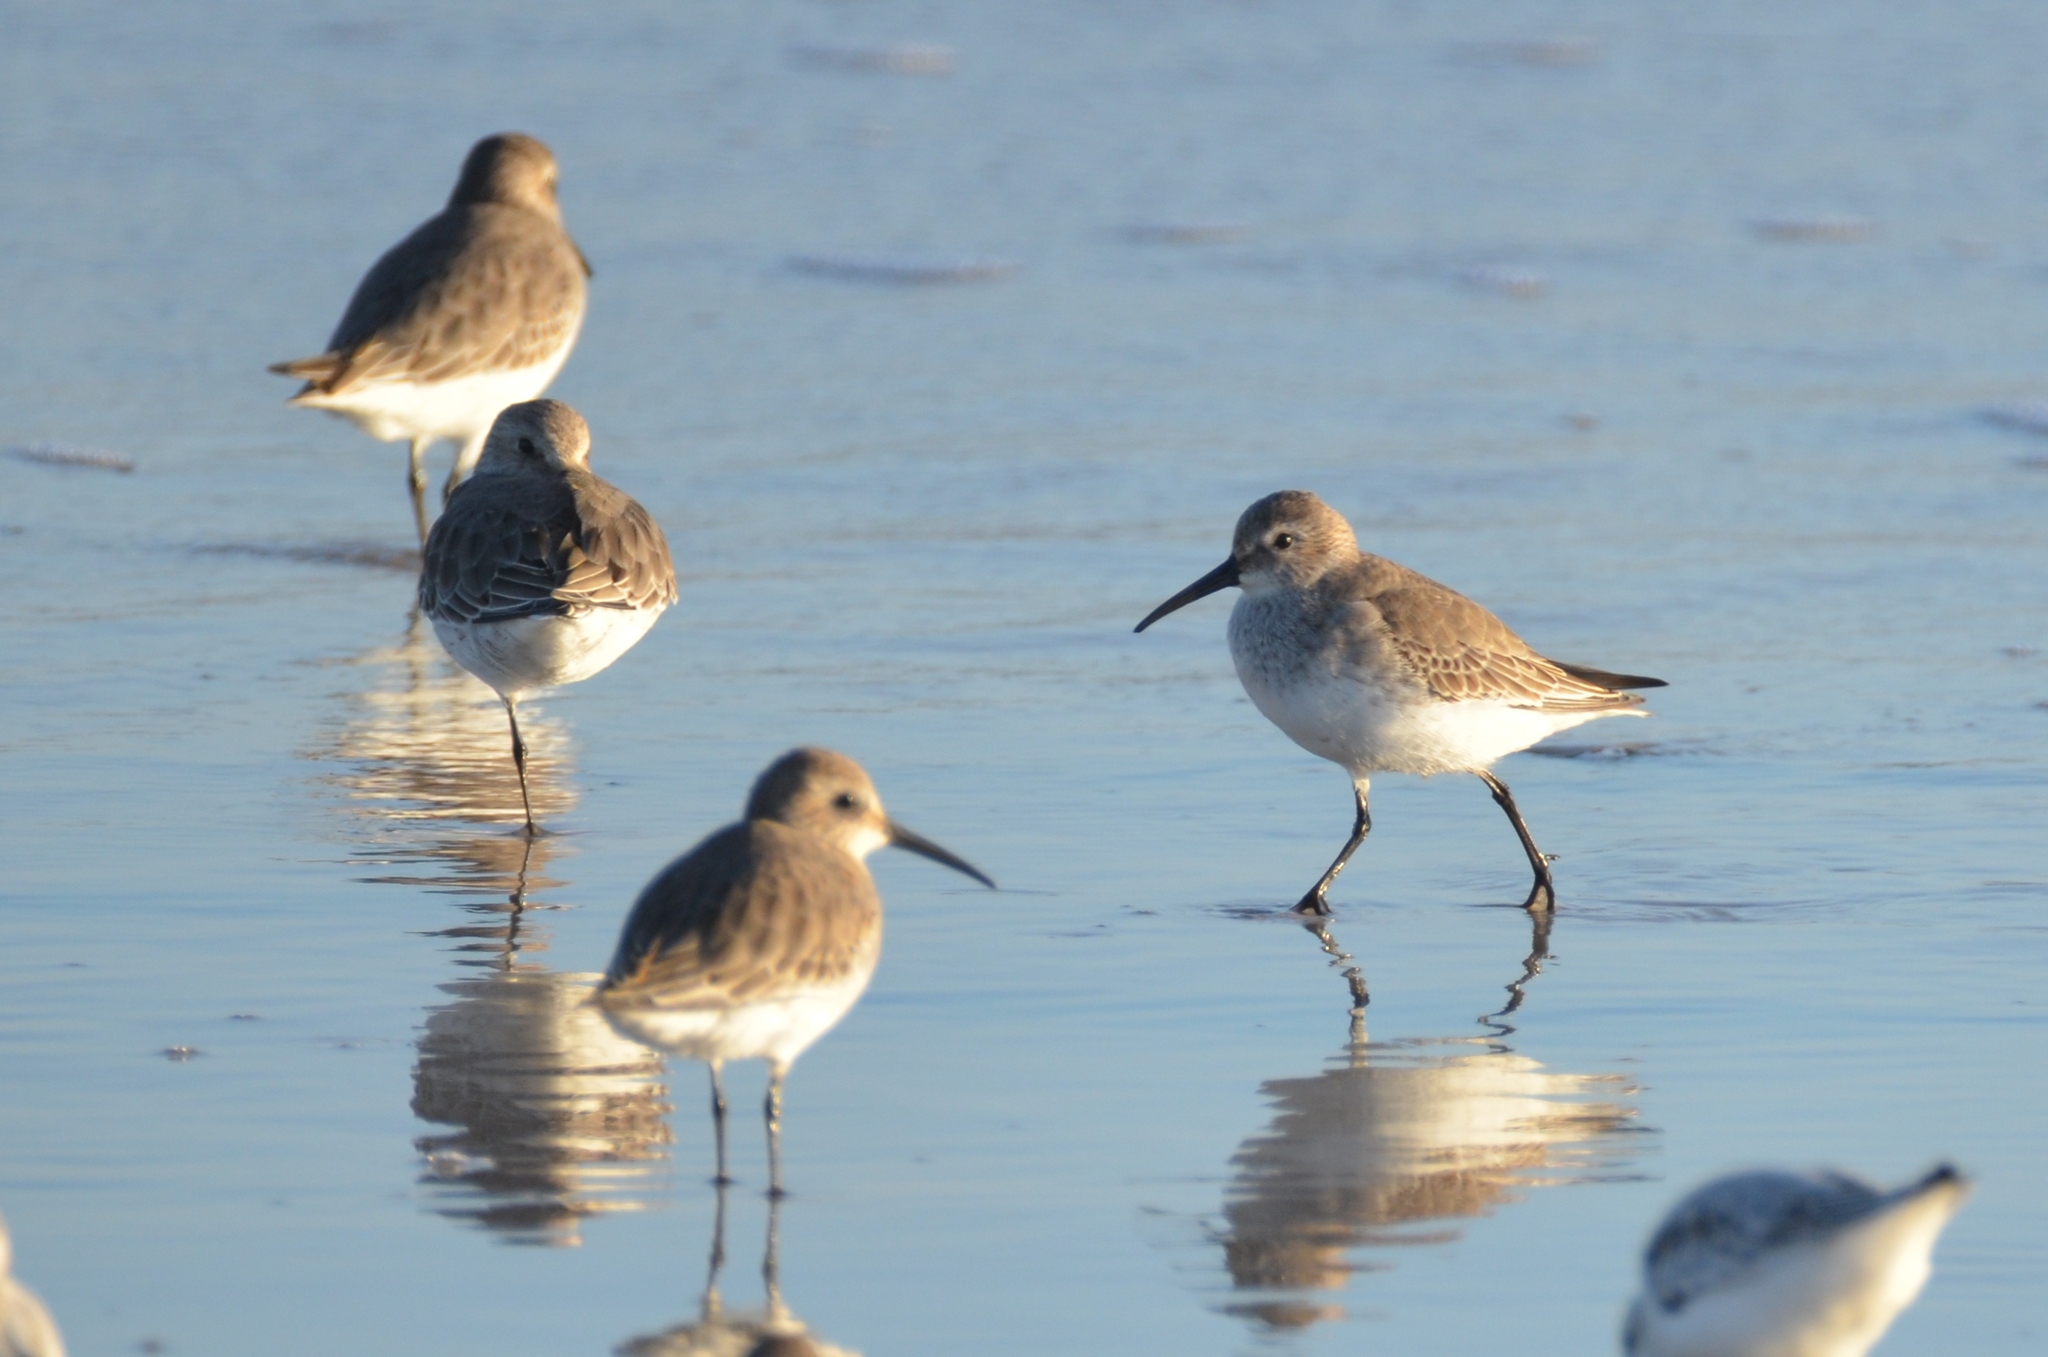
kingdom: Animalia
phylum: Chordata
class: Aves
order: Charadriiformes
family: Scolopacidae
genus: Calidris
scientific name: Calidris alpina
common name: Dunlin
